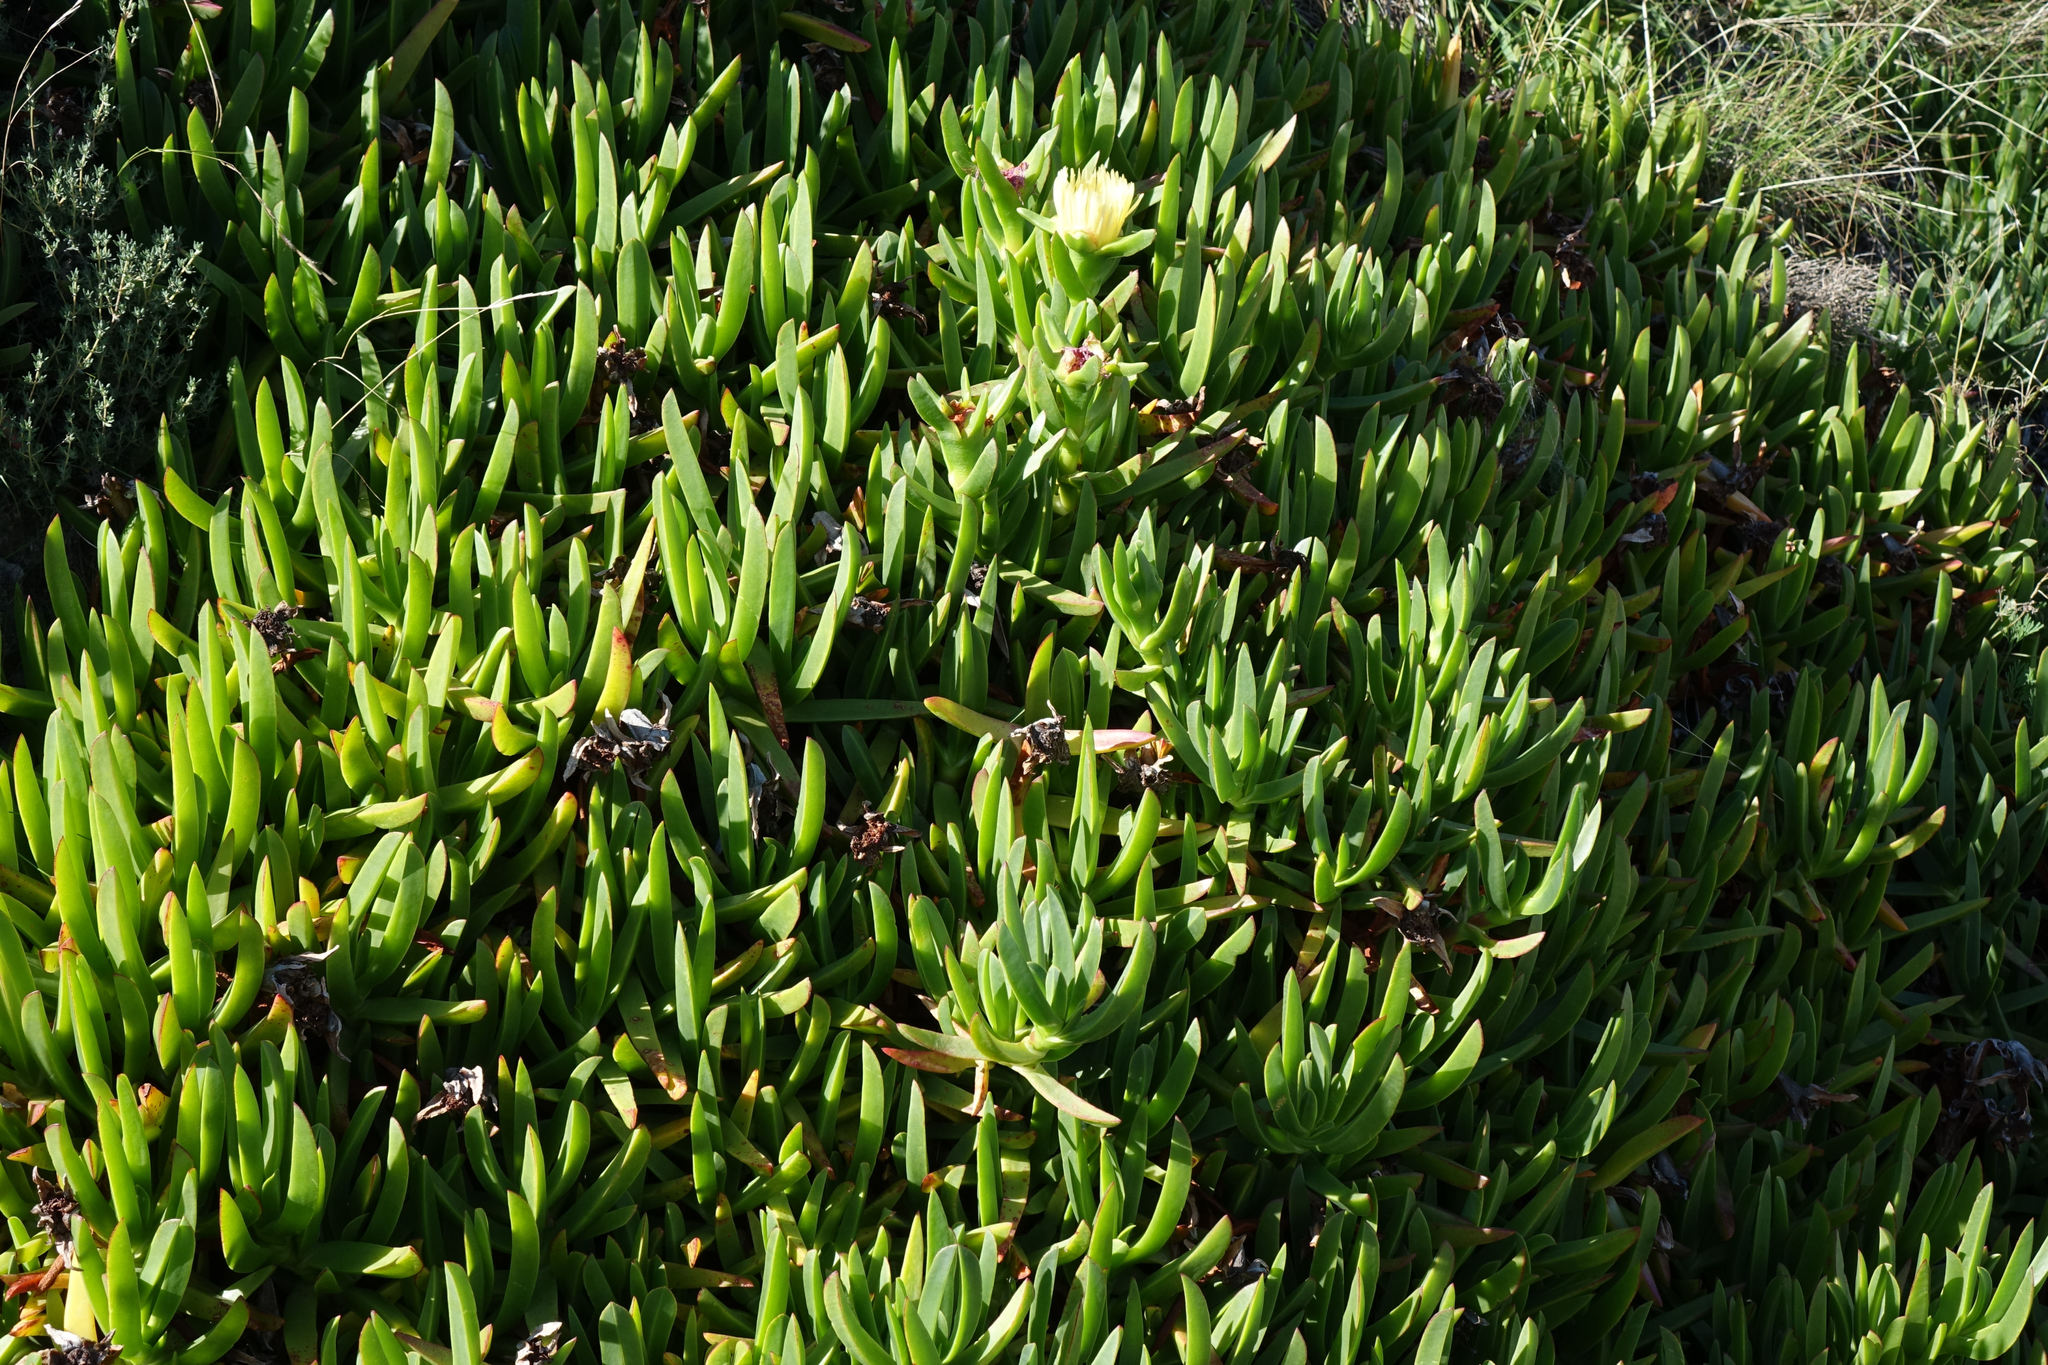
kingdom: Plantae
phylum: Tracheophyta
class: Magnoliopsida
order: Caryophyllales
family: Aizoaceae
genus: Carpobrotus
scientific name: Carpobrotus edulis
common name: Hottentot-fig
